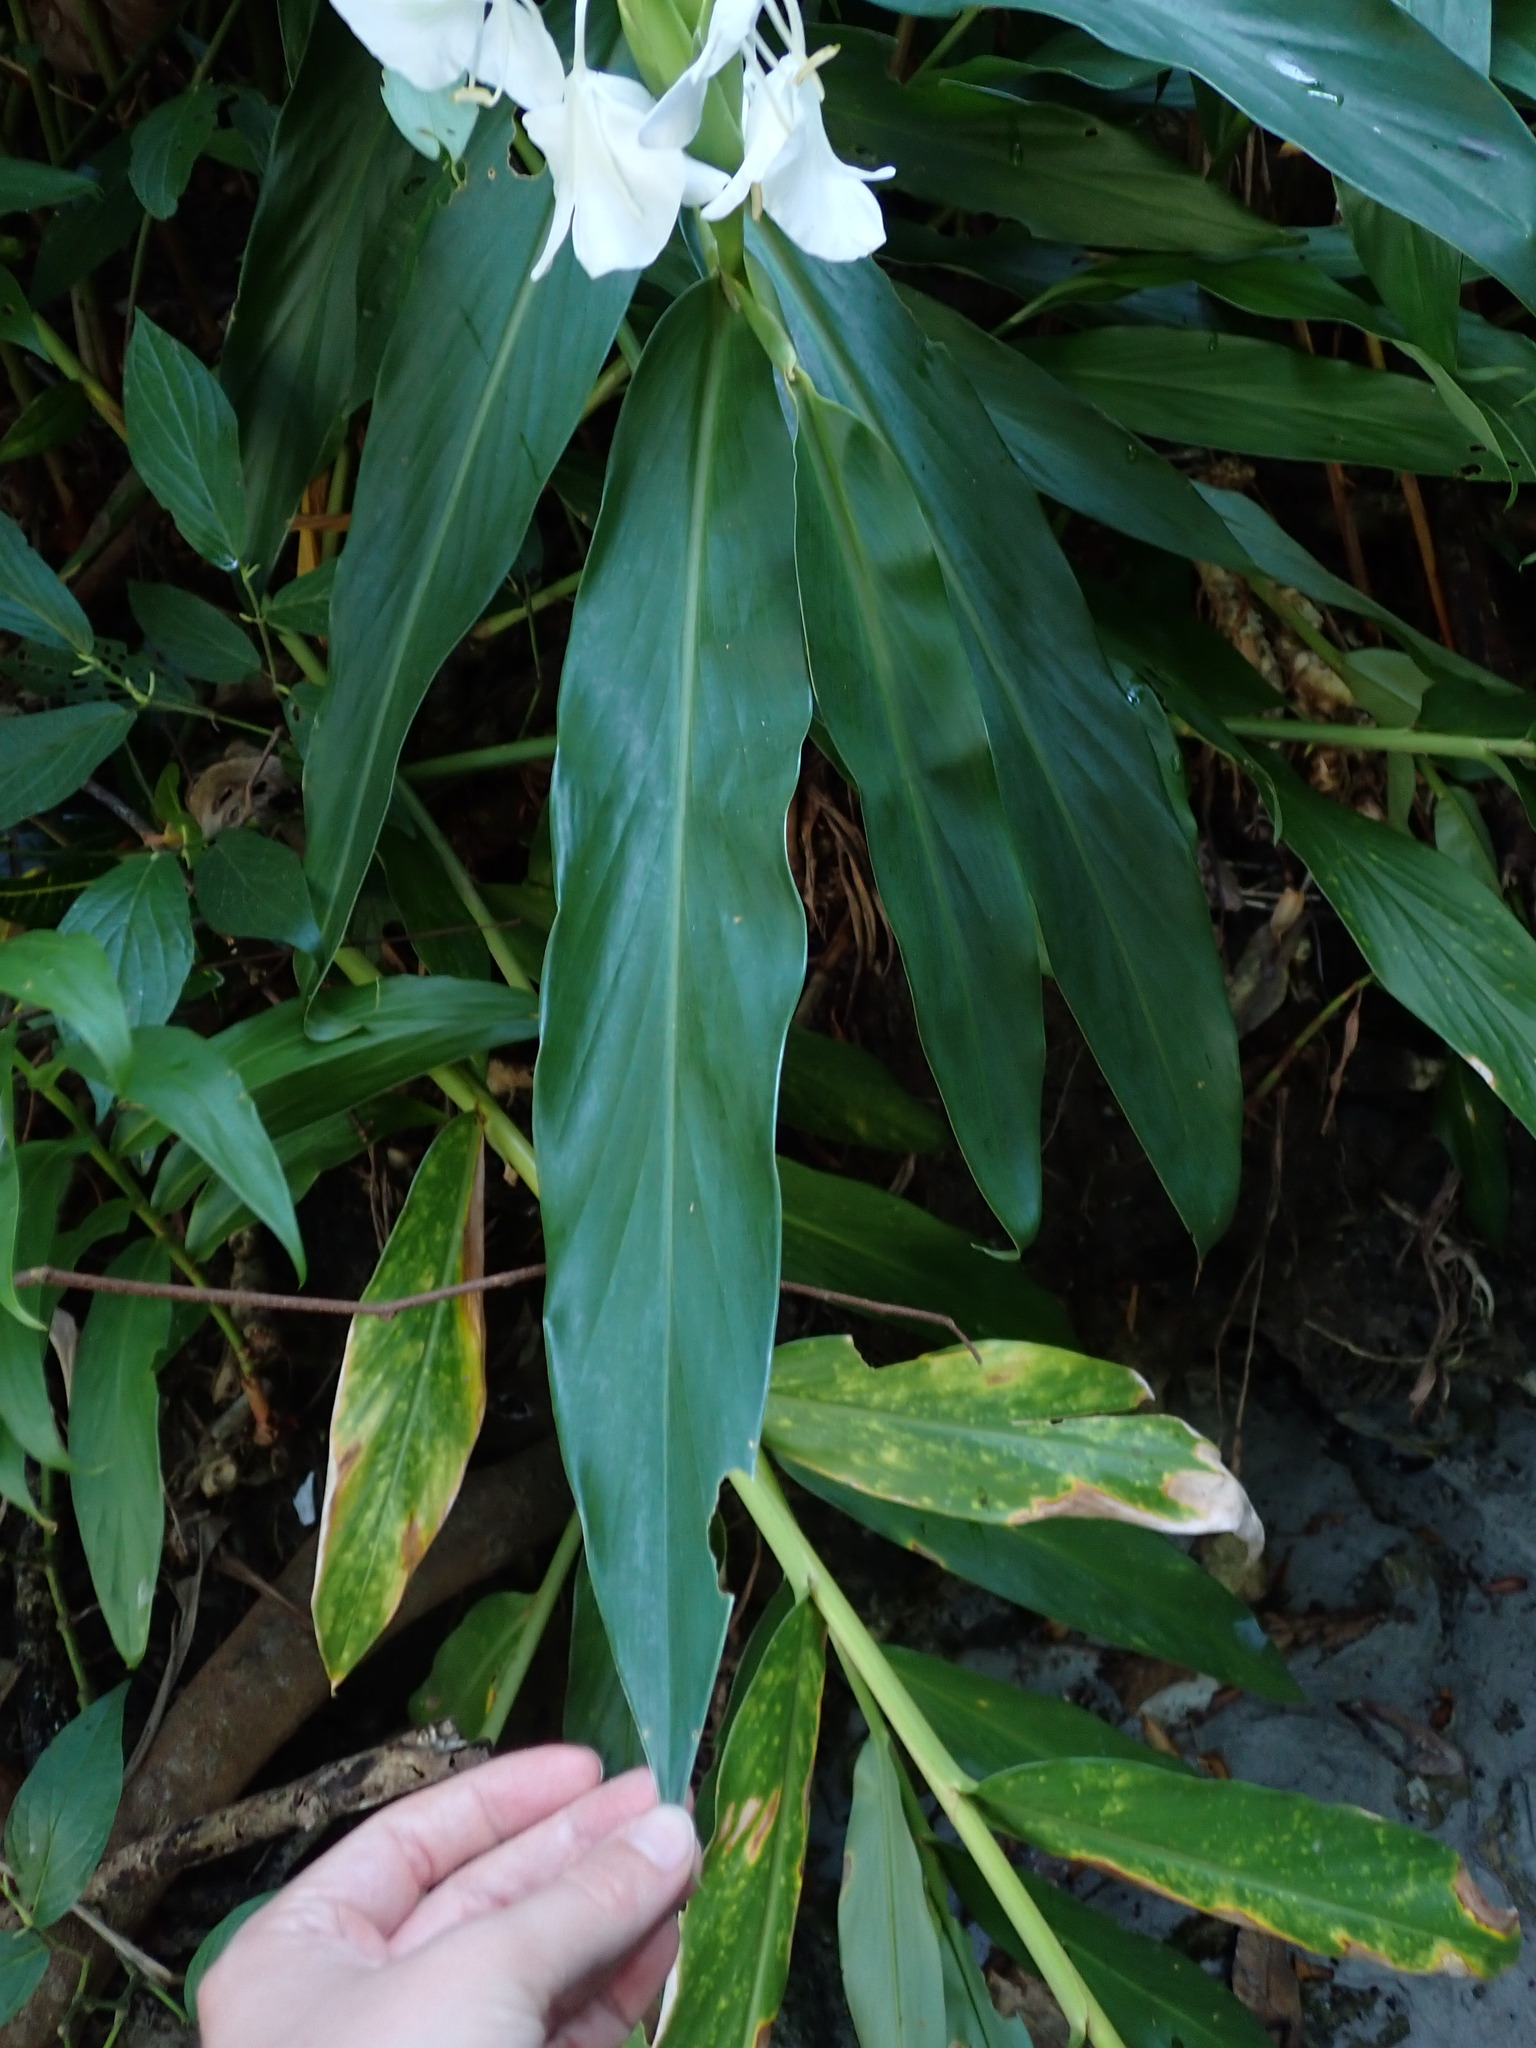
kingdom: Plantae
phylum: Tracheophyta
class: Liliopsida
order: Zingiberales
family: Zingiberaceae
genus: Hedychium
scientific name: Hedychium coronarium
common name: White garland-lily
